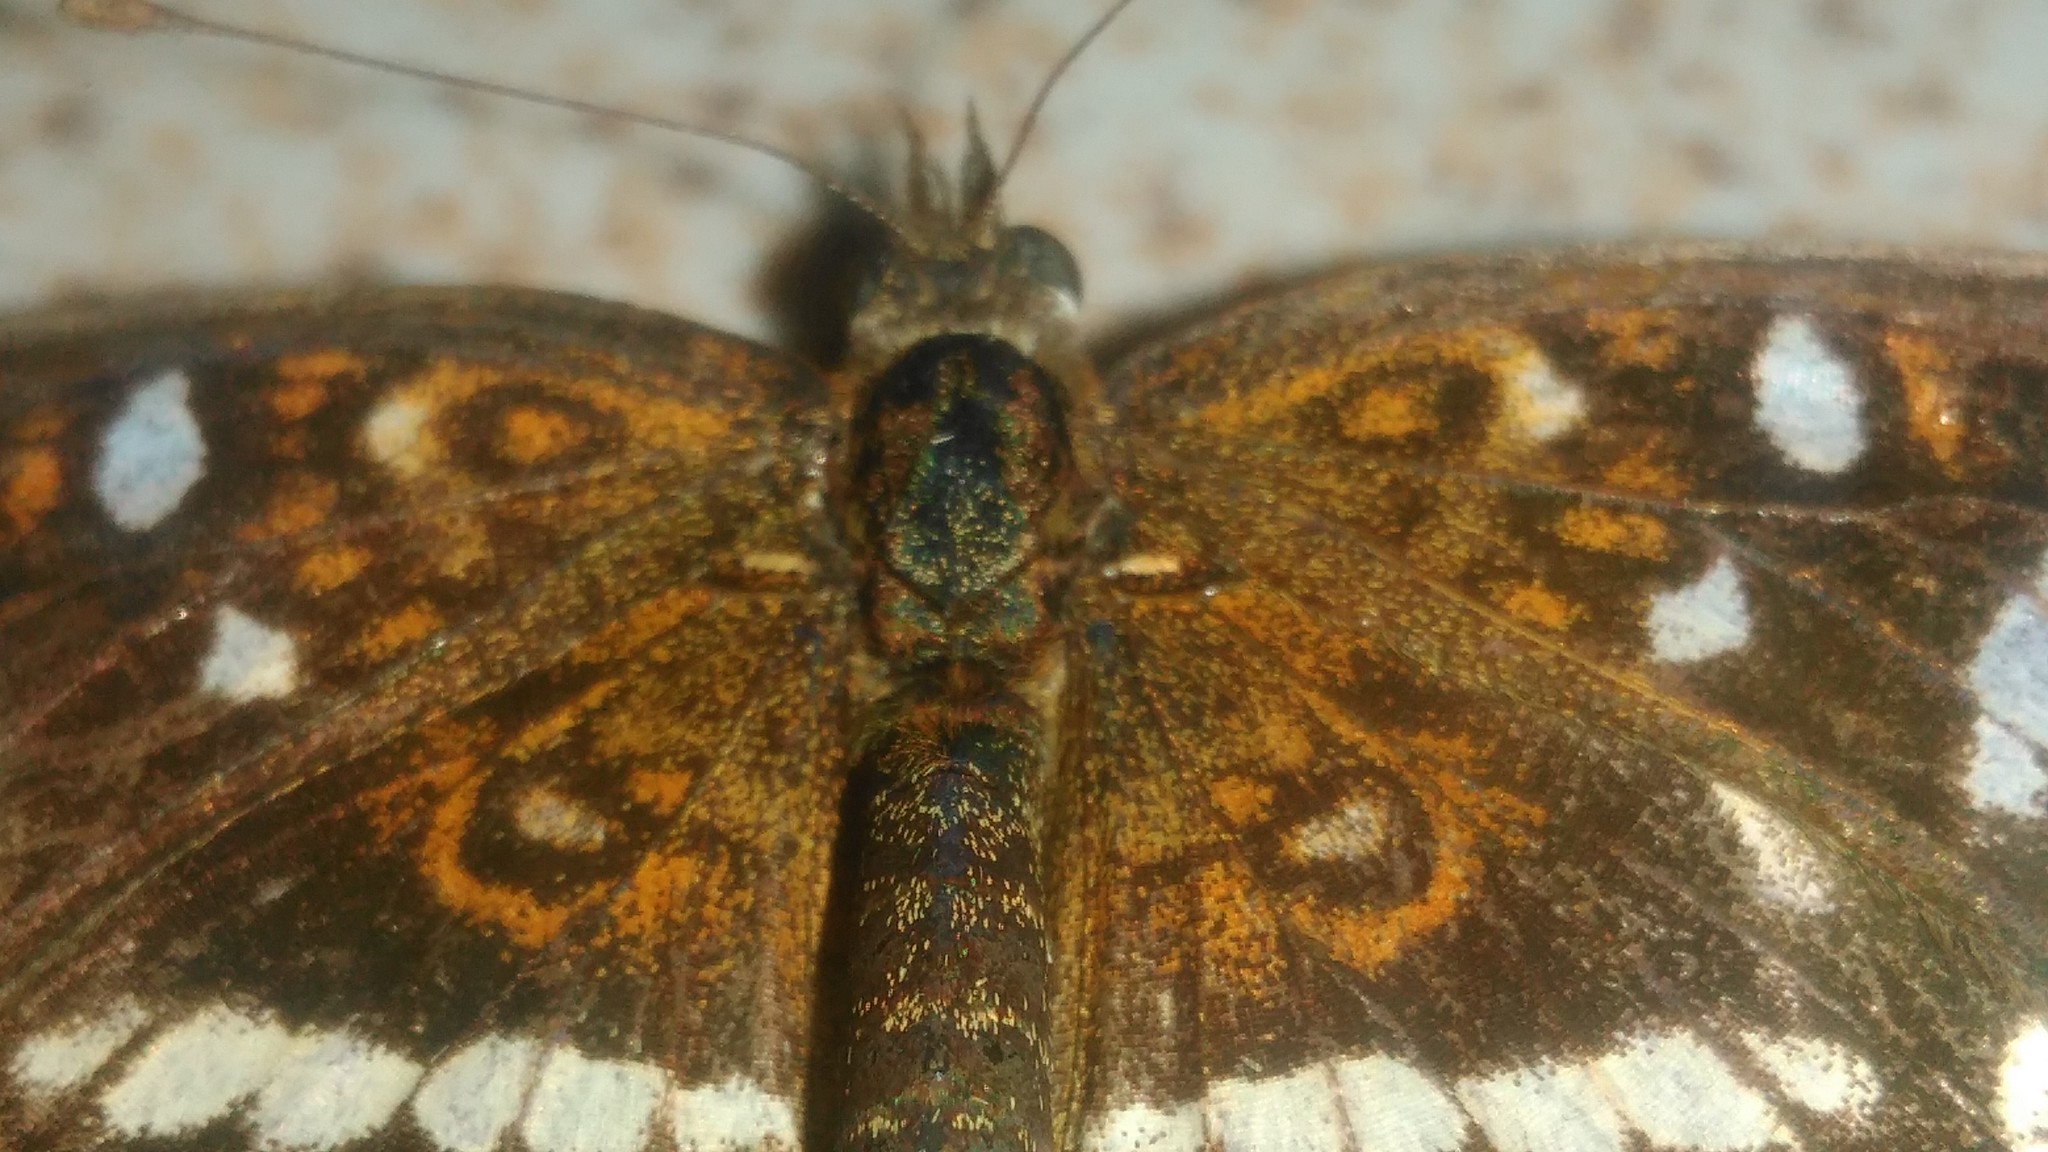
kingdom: Animalia
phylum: Arthropoda
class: Insecta
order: Lepidoptera
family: Nymphalidae
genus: Ortilia
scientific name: Ortilia ithra
